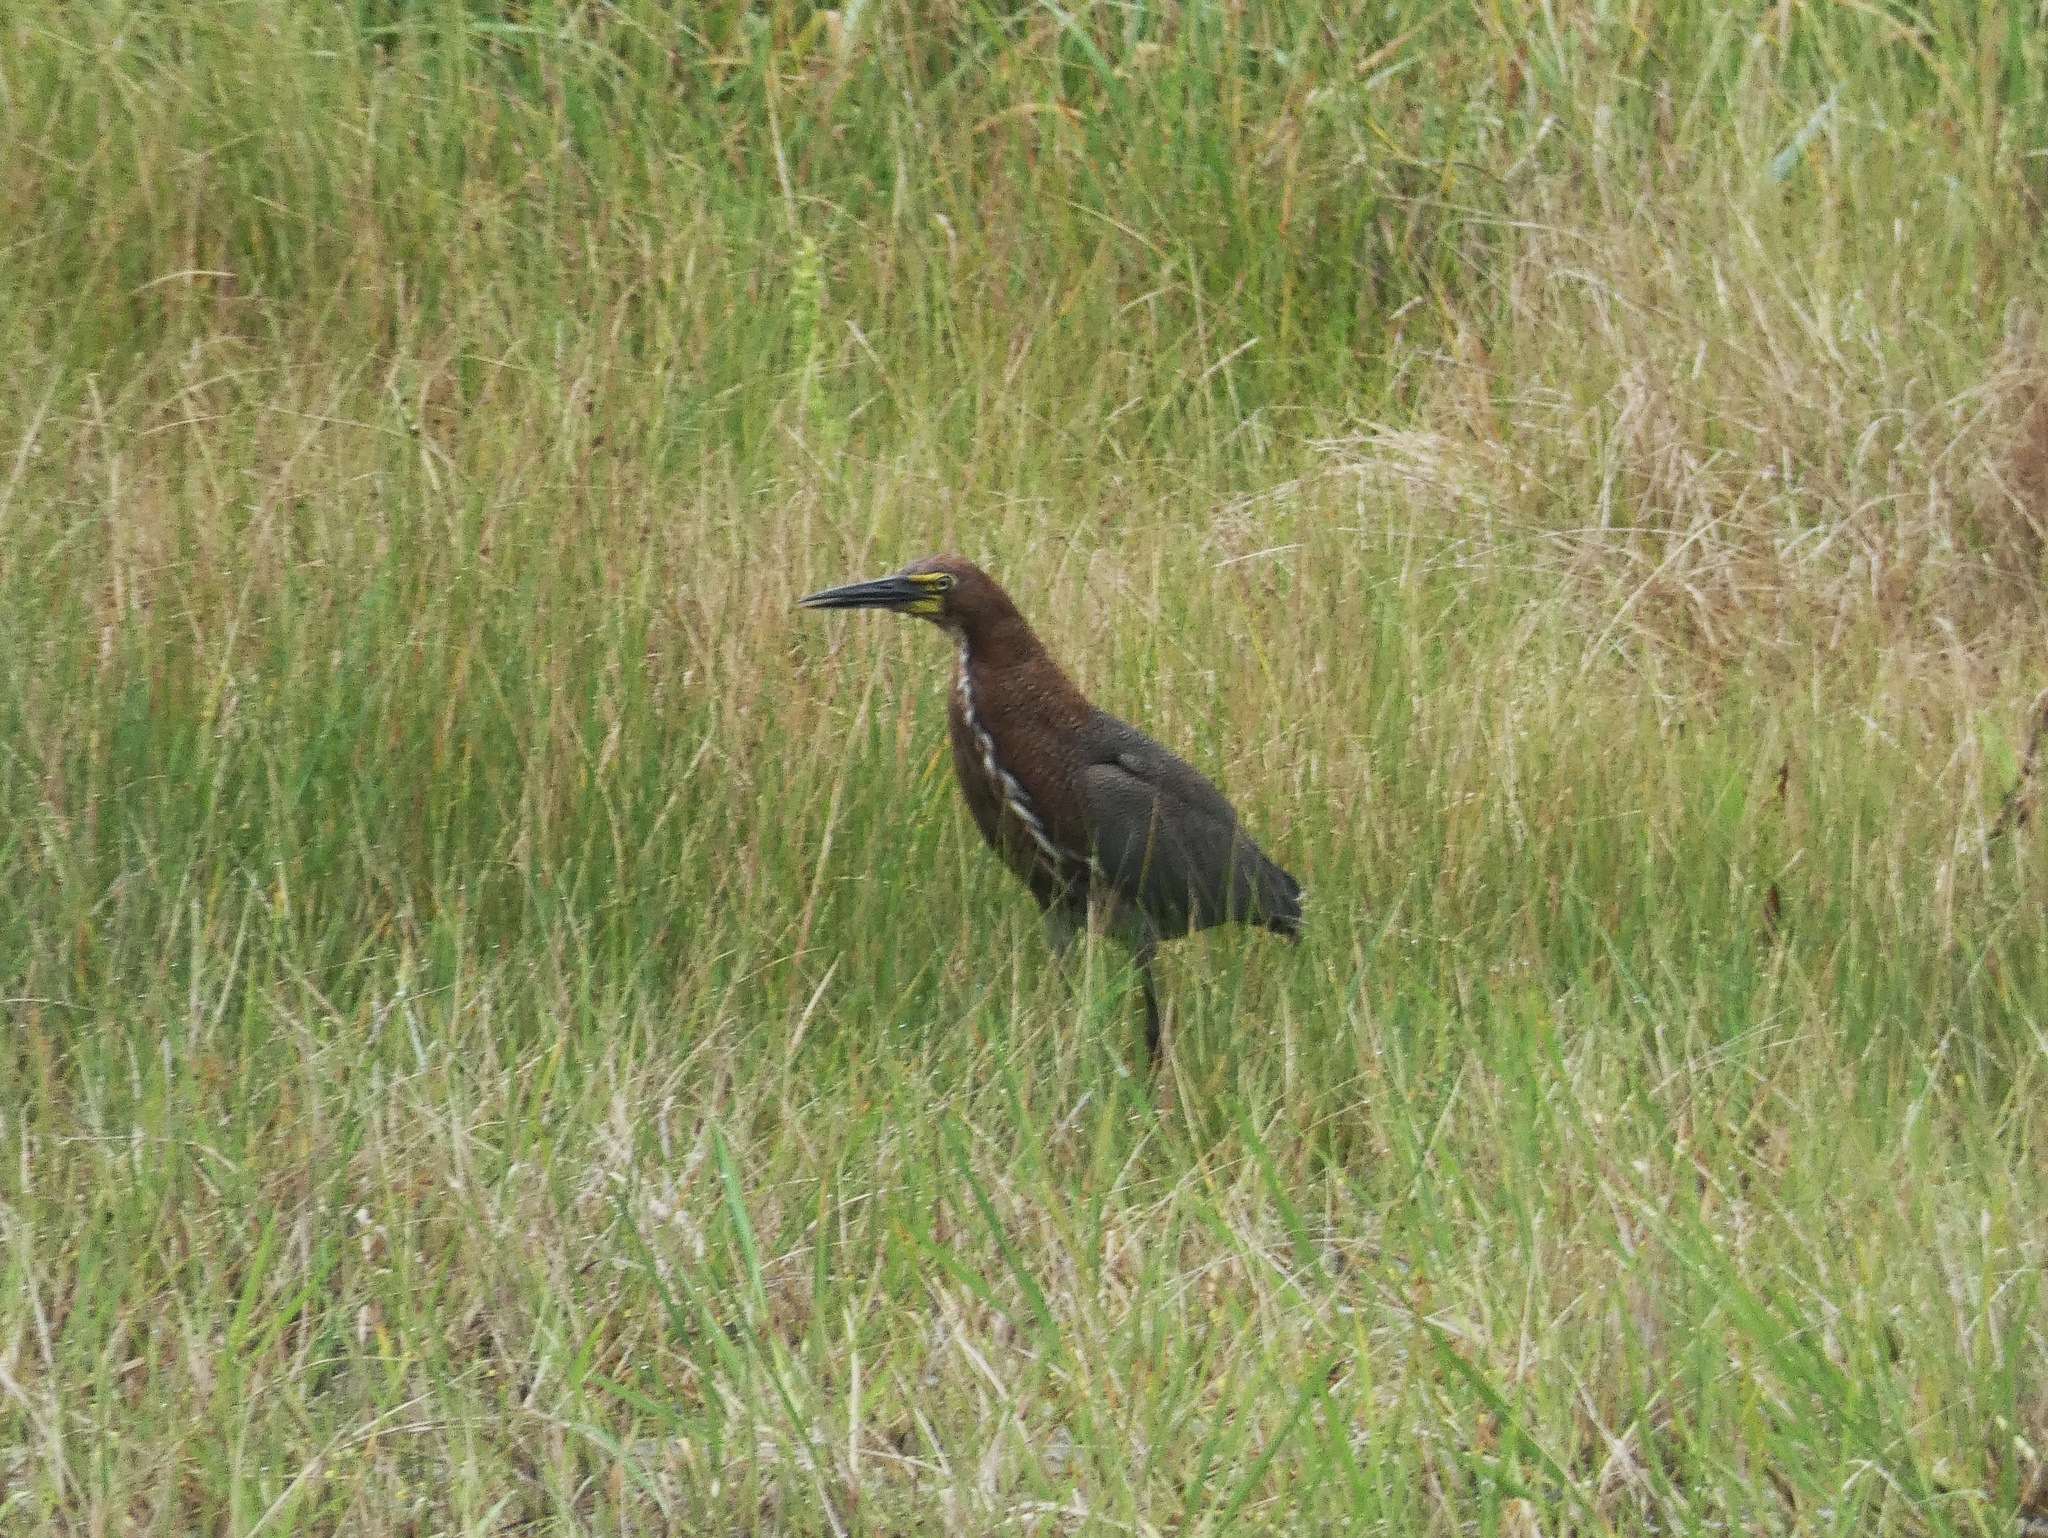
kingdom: Animalia
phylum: Chordata
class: Aves
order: Pelecaniformes
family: Ardeidae
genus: Tigrisoma
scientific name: Tigrisoma lineatum
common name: Rufescent tiger-heron
